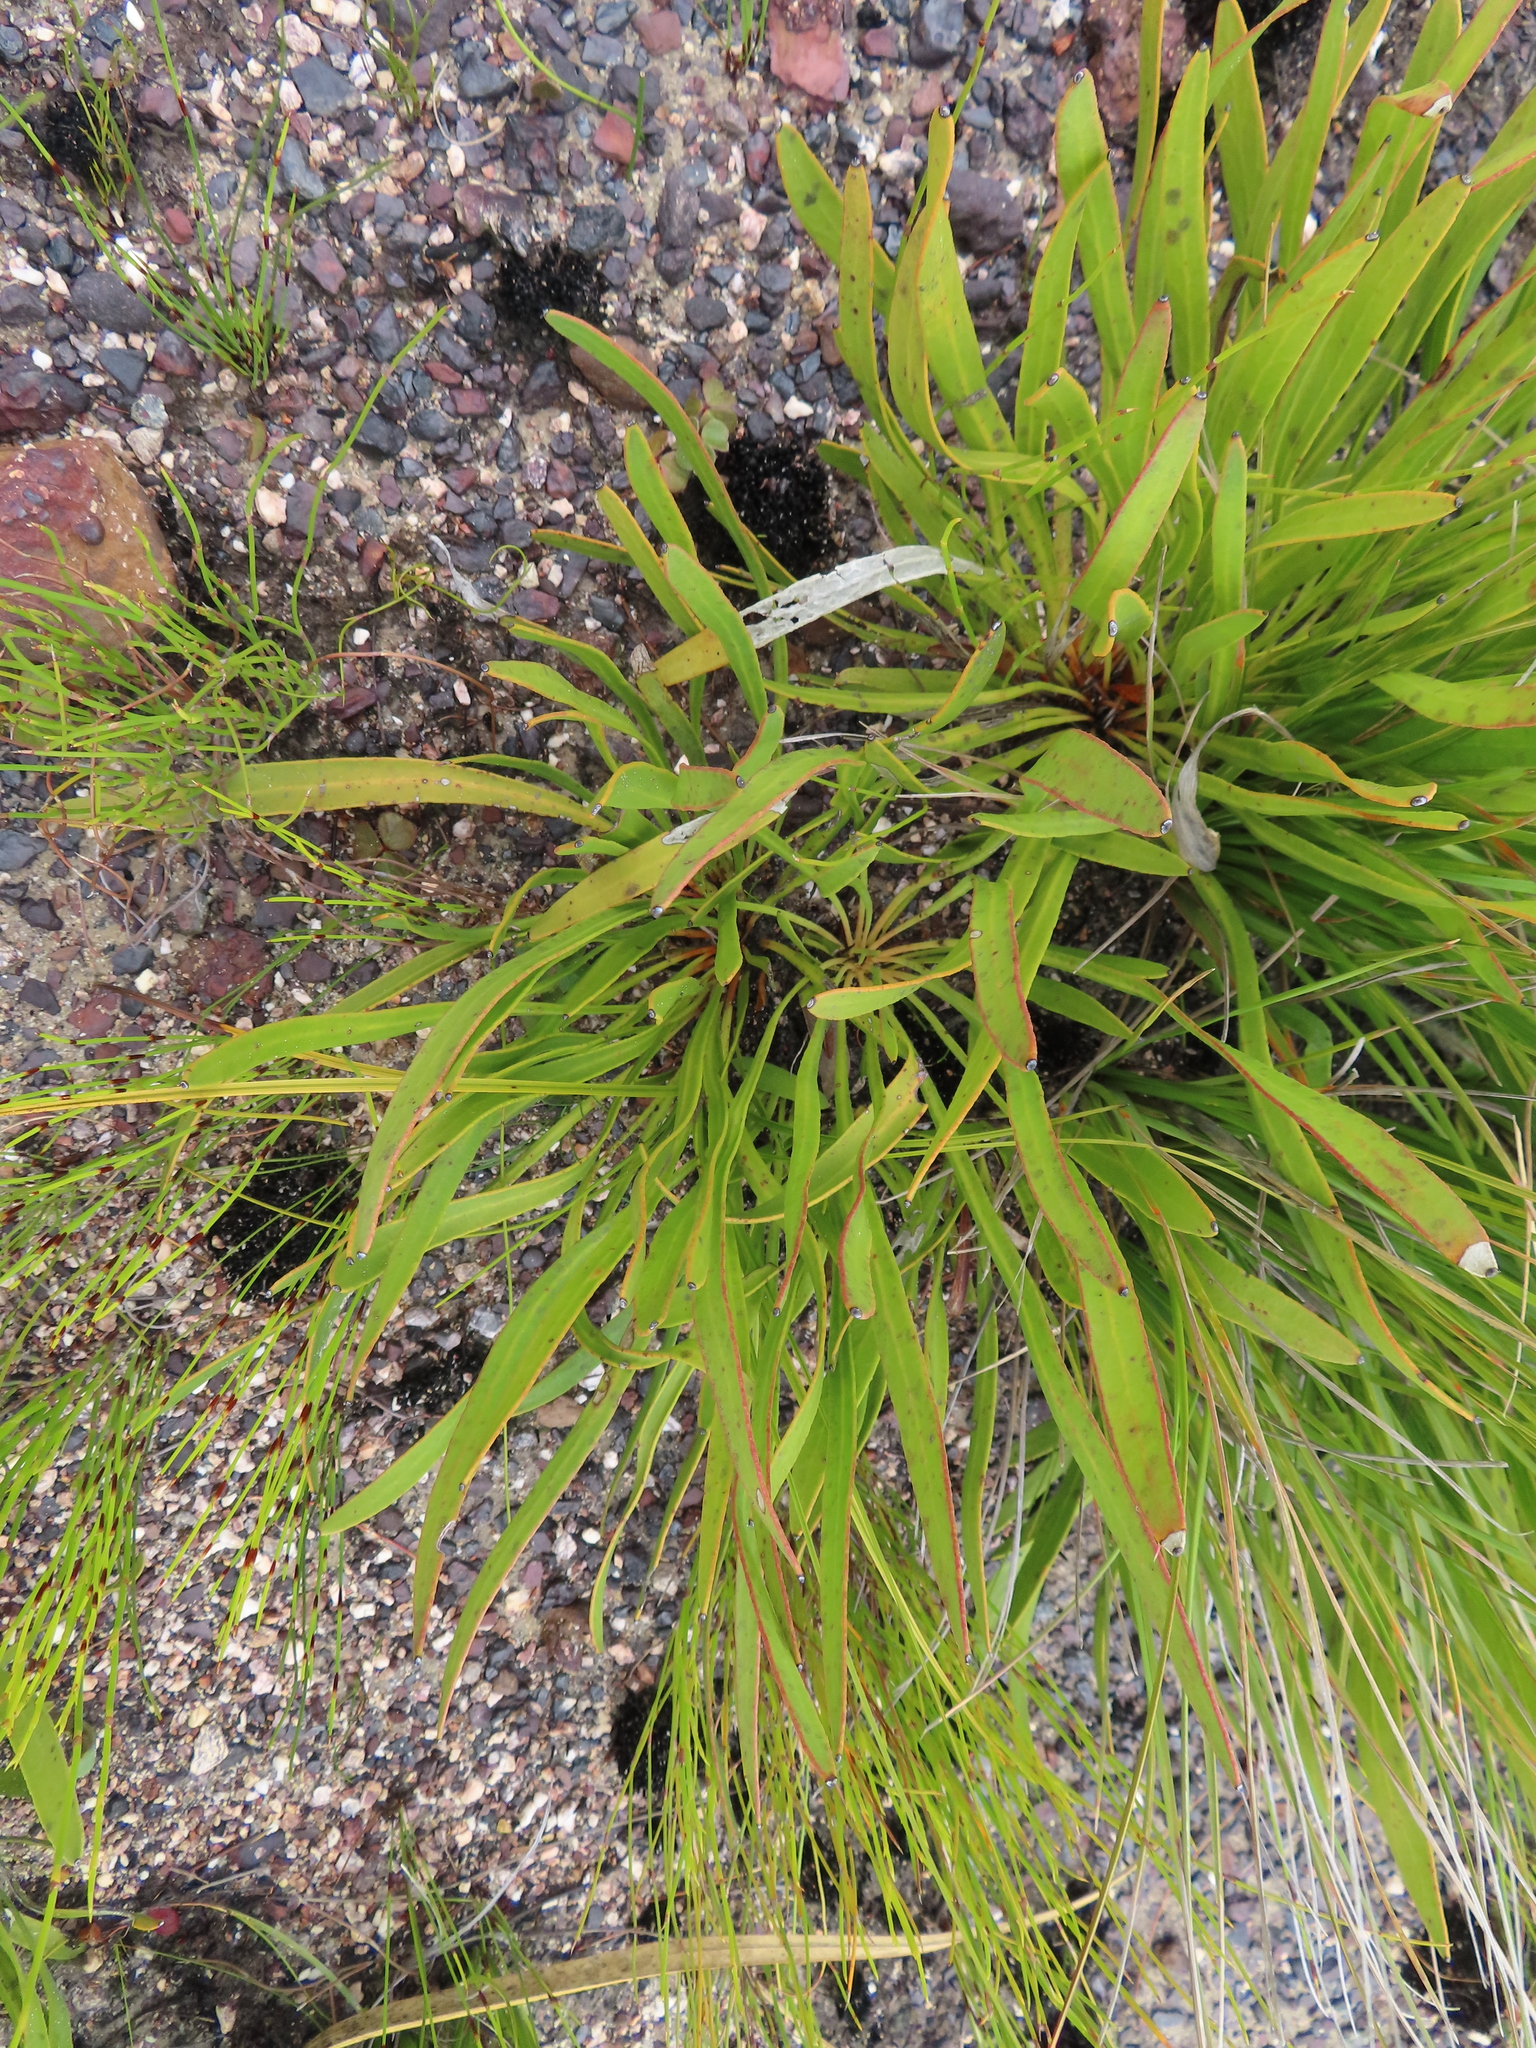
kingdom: Plantae
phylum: Tracheophyta
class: Magnoliopsida
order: Proteales
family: Proteaceae
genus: Protea
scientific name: Protea scabra
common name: Sandpaper-leaf sugarbush
